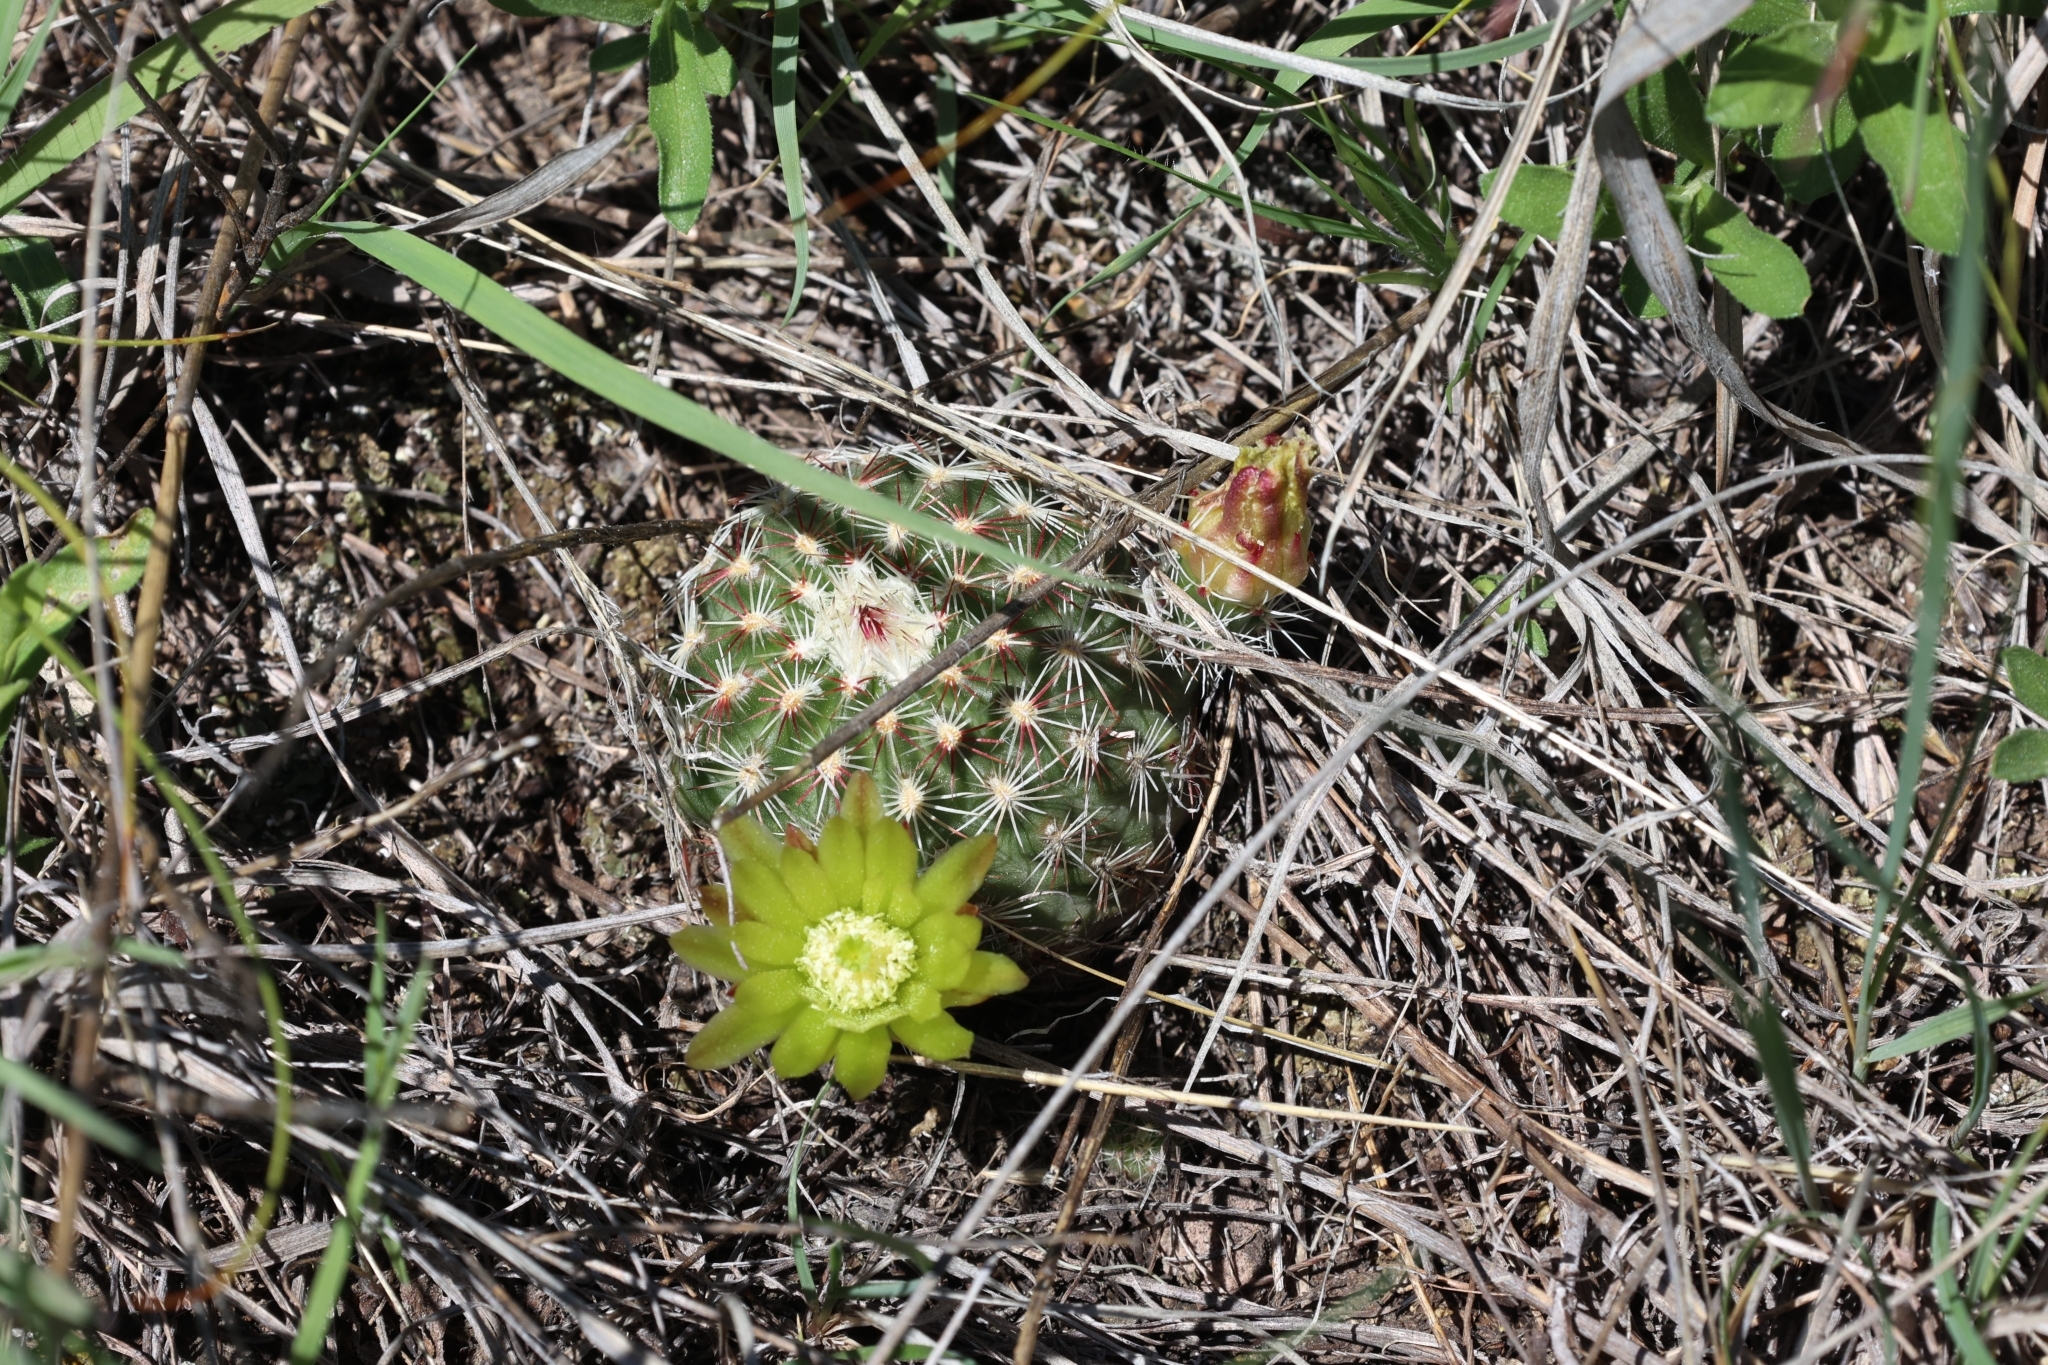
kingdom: Plantae
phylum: Tracheophyta
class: Magnoliopsida
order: Caryophyllales
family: Cactaceae
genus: Echinocereus
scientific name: Echinocereus viridiflorus
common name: Nylon hedgehog cactus
